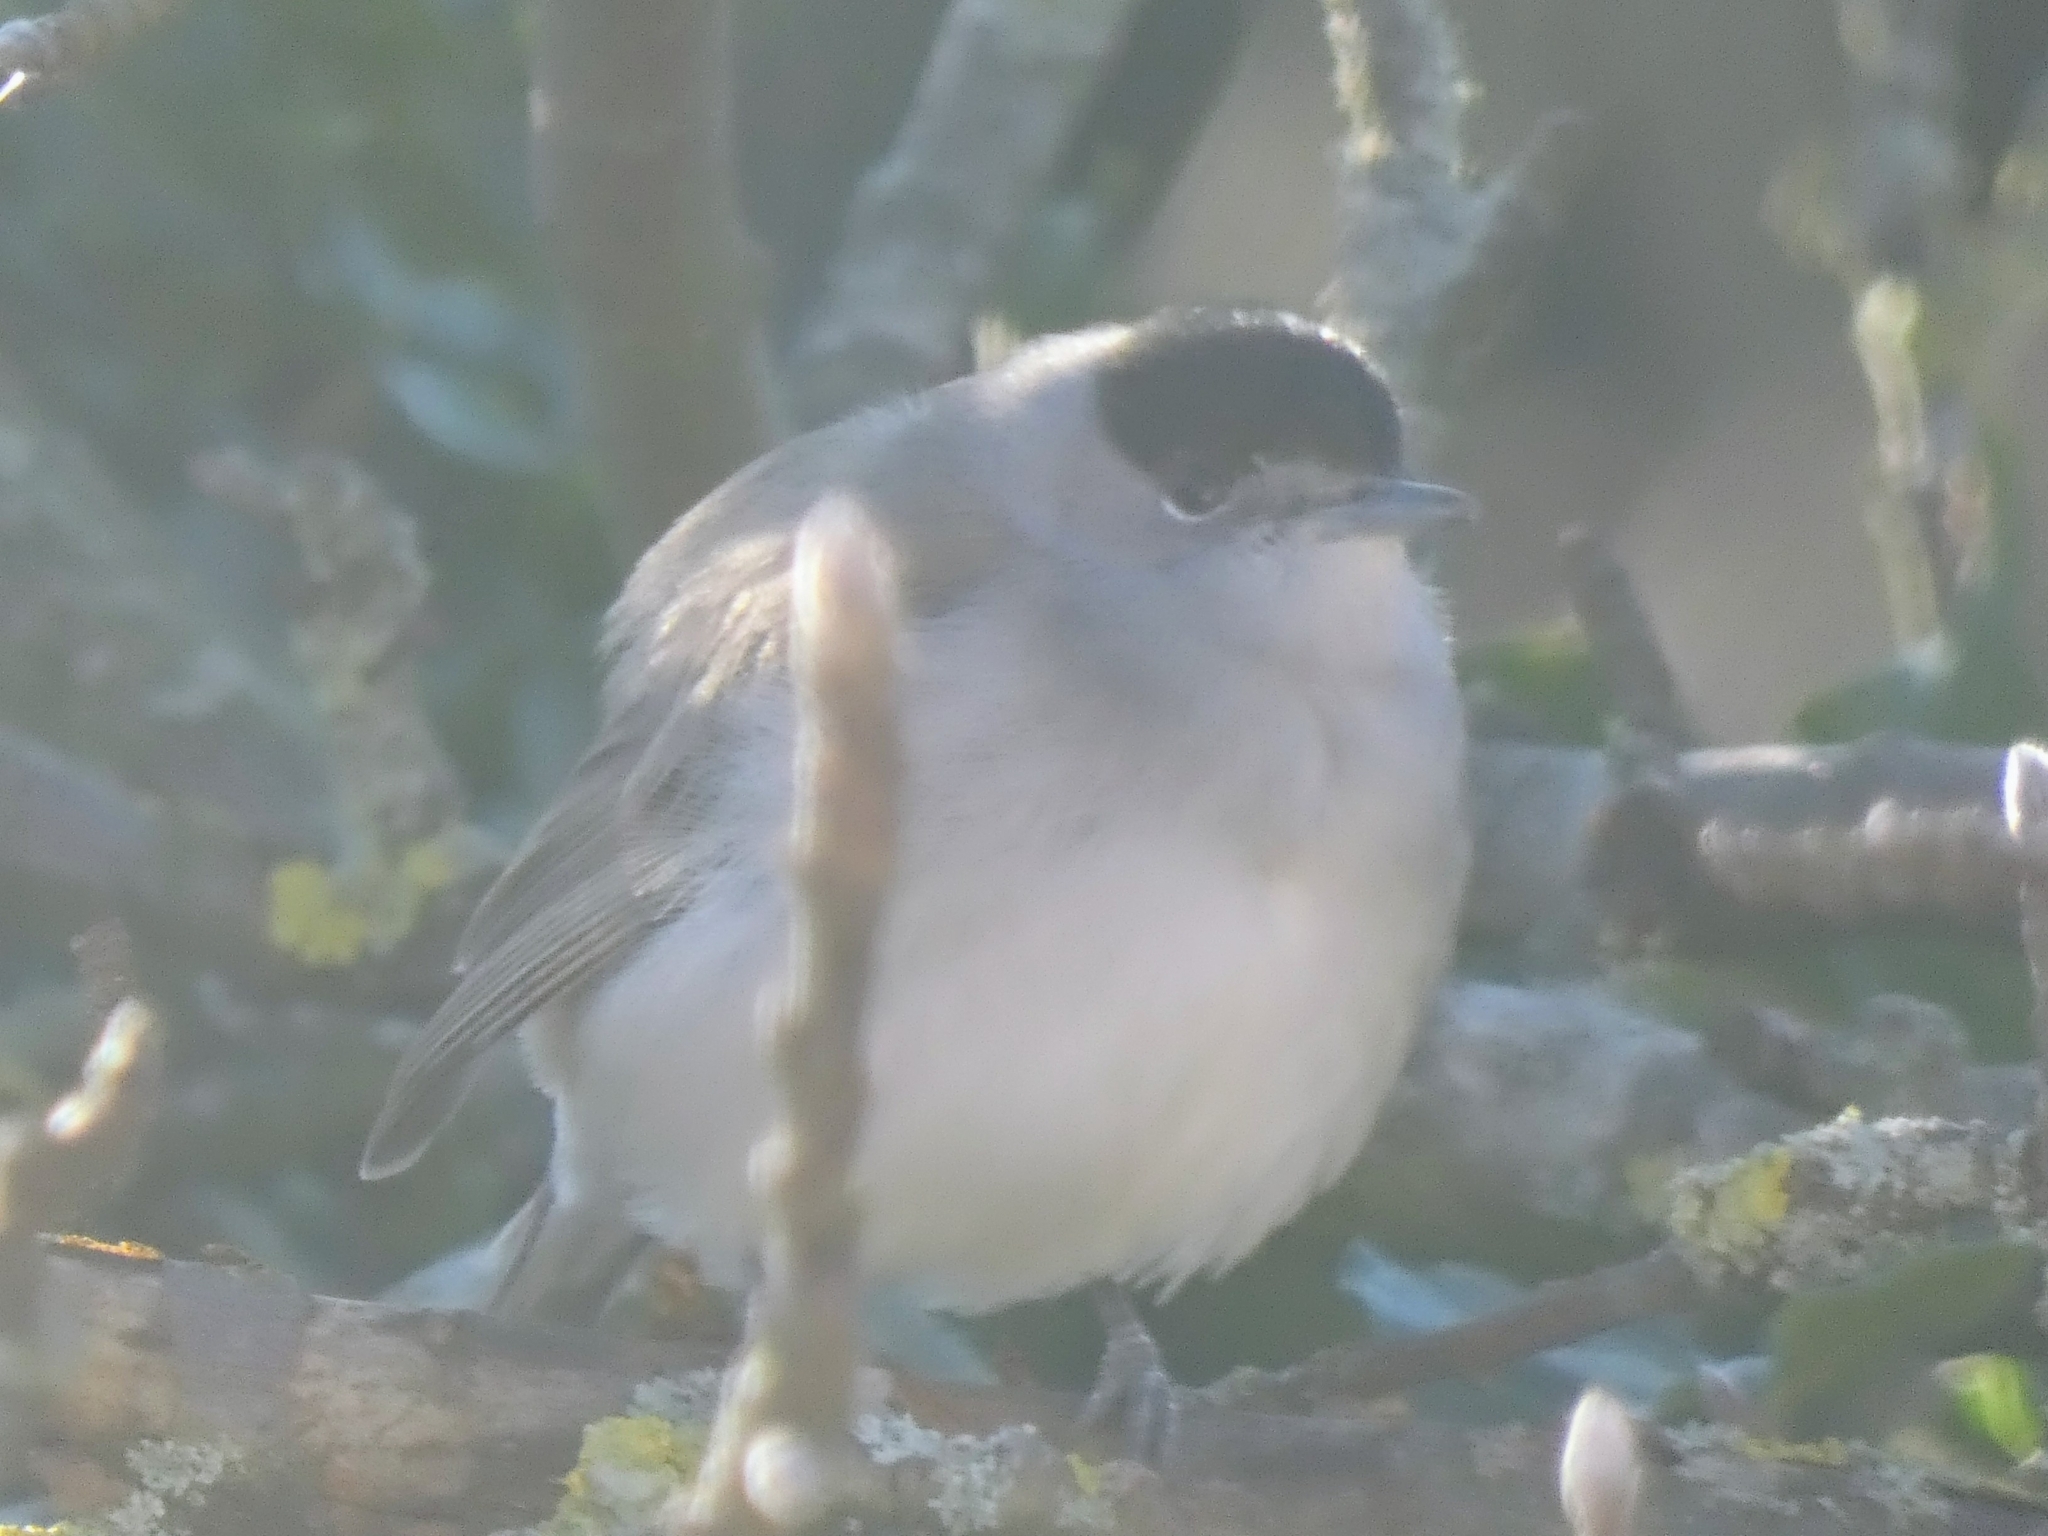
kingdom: Animalia
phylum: Chordata
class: Aves
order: Passeriformes
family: Sylviidae
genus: Sylvia
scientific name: Sylvia atricapilla
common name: Eurasian blackcap
